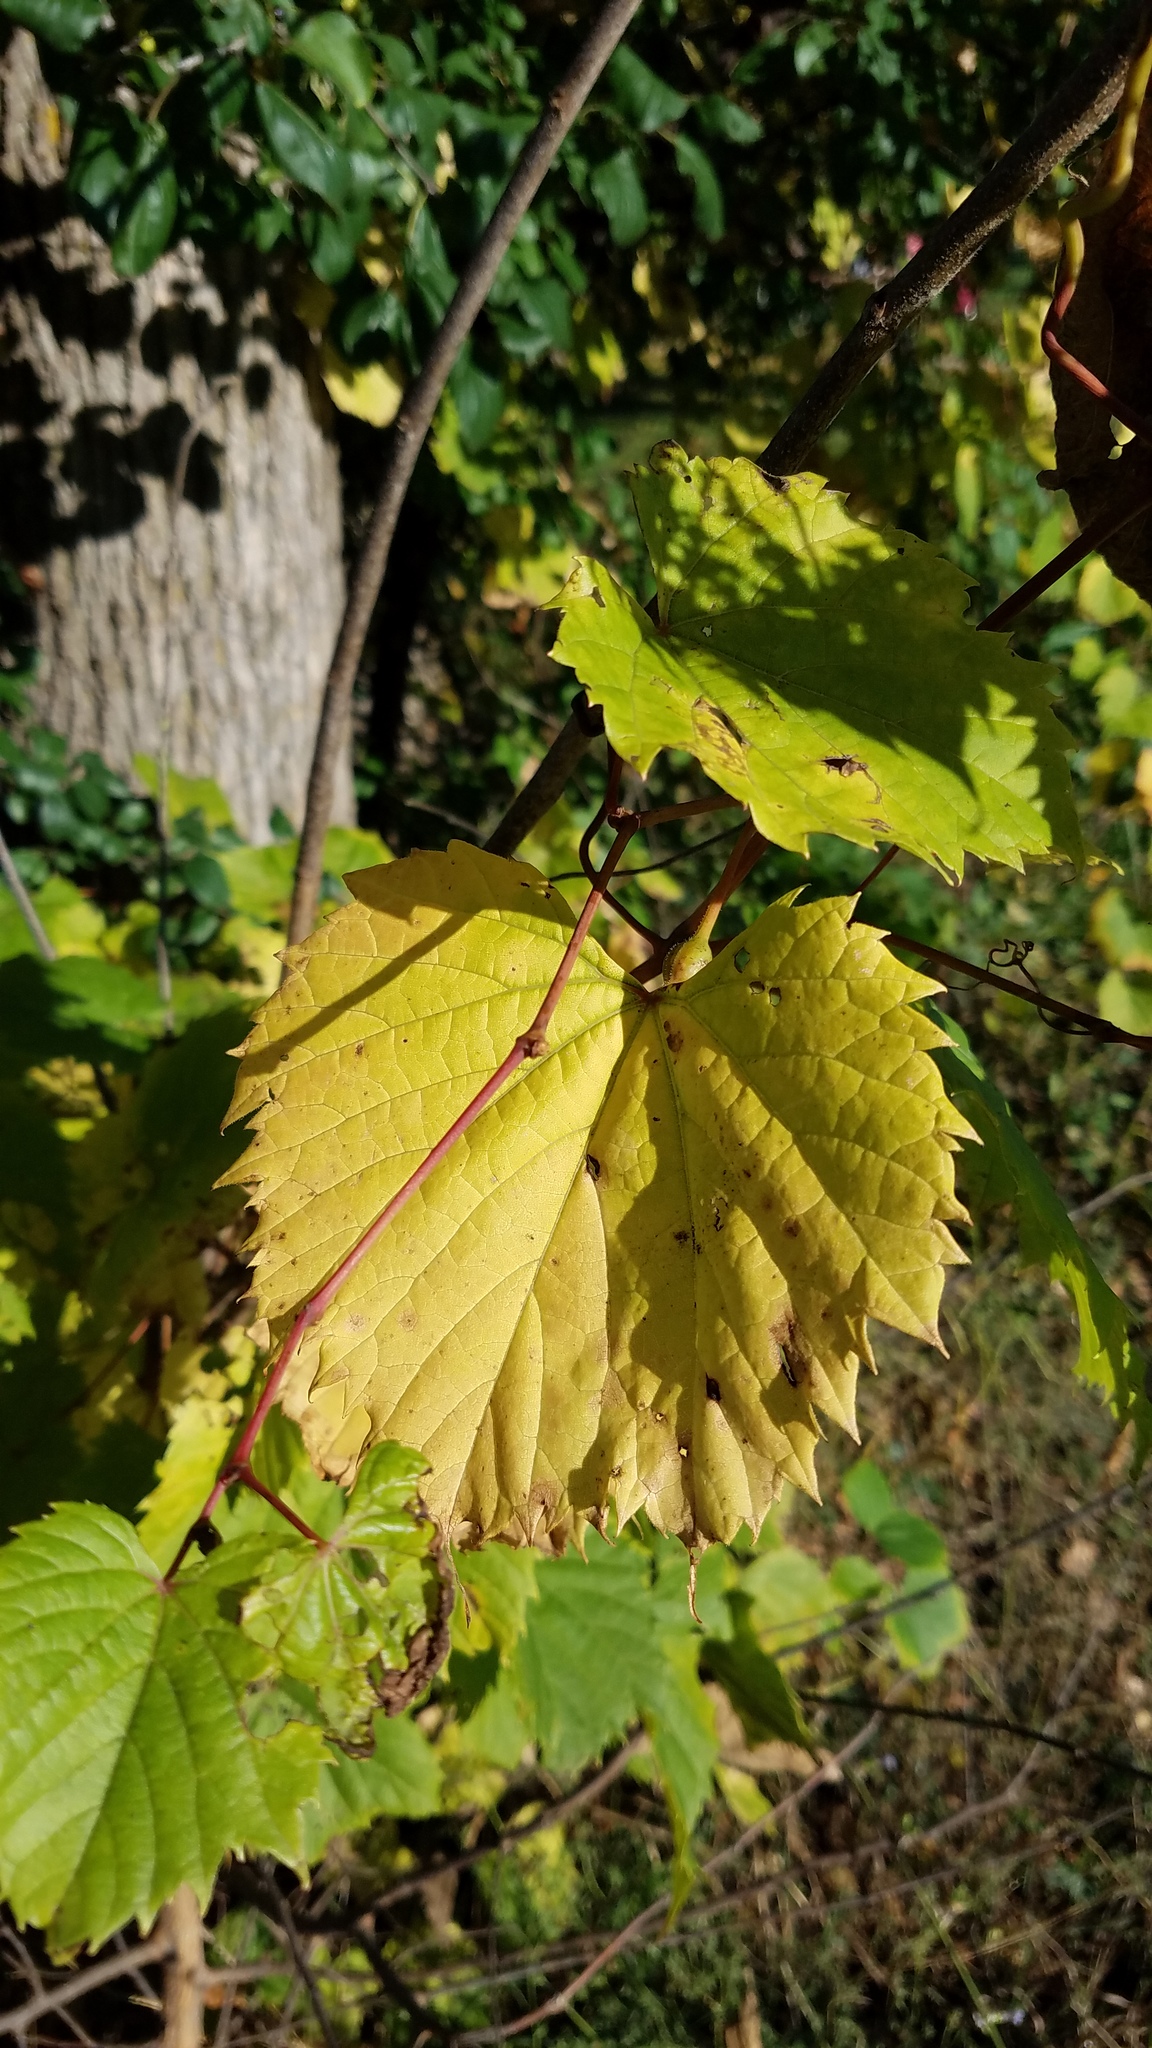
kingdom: Animalia
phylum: Arthropoda
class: Insecta
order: Diptera
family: Cecidomyiidae
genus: Neolasioptera
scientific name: Neolasioptera vitinea
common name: Grape leaf petiole gall
